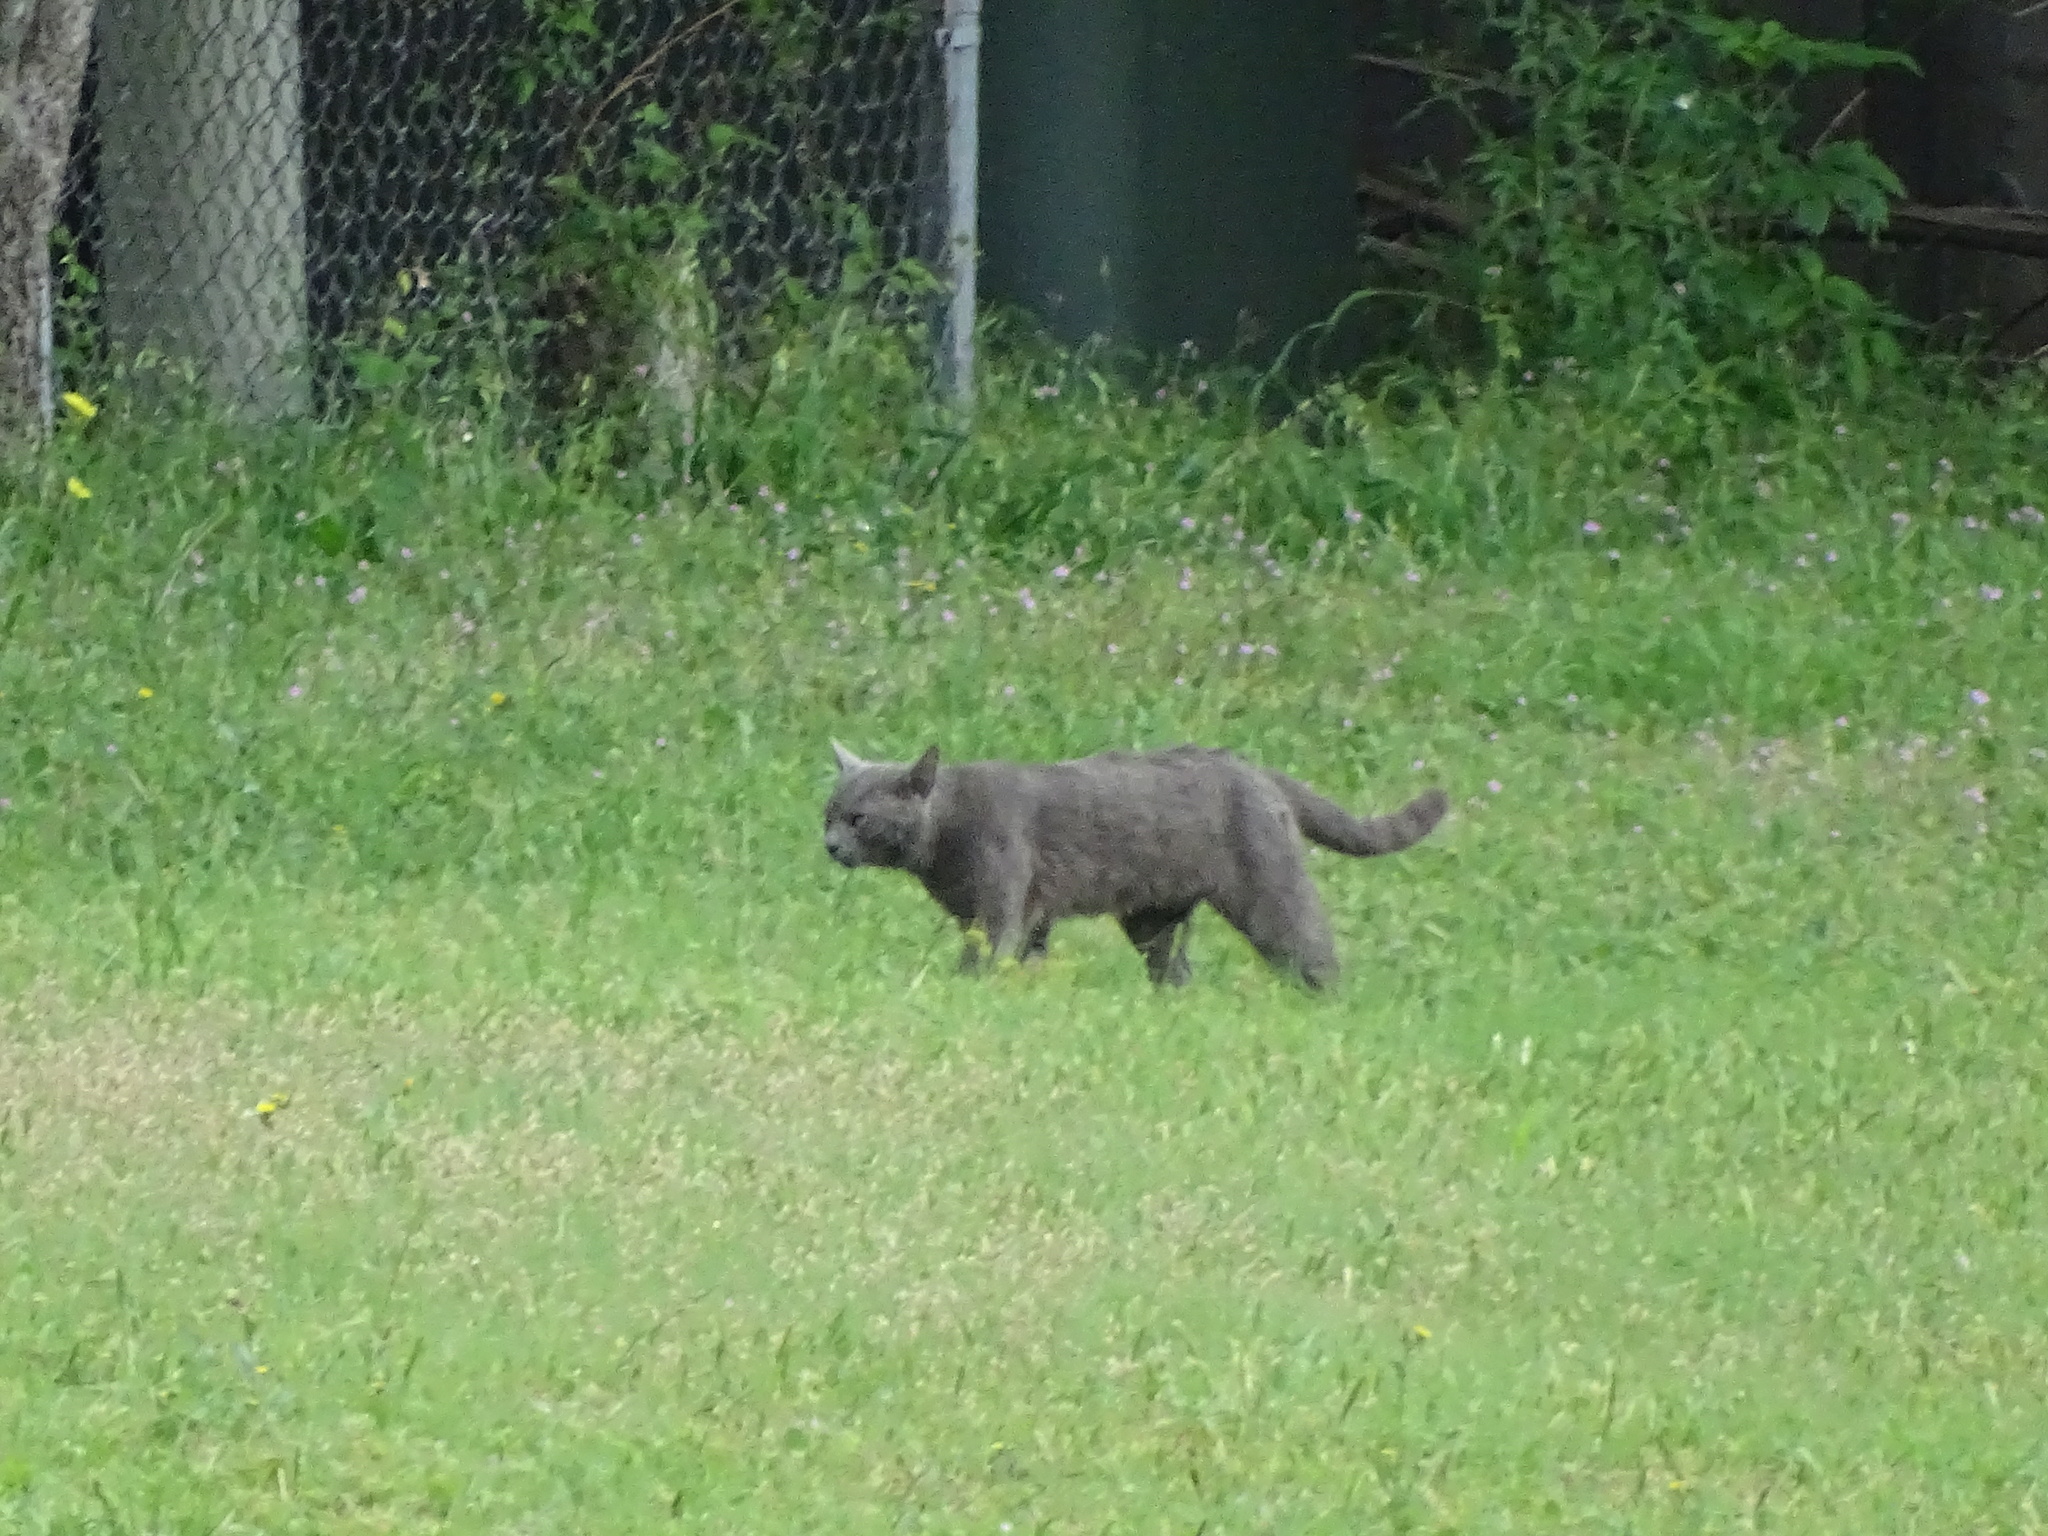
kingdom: Animalia
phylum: Chordata
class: Mammalia
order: Carnivora
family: Felidae
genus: Felis
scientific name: Felis catus
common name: Domestic cat
